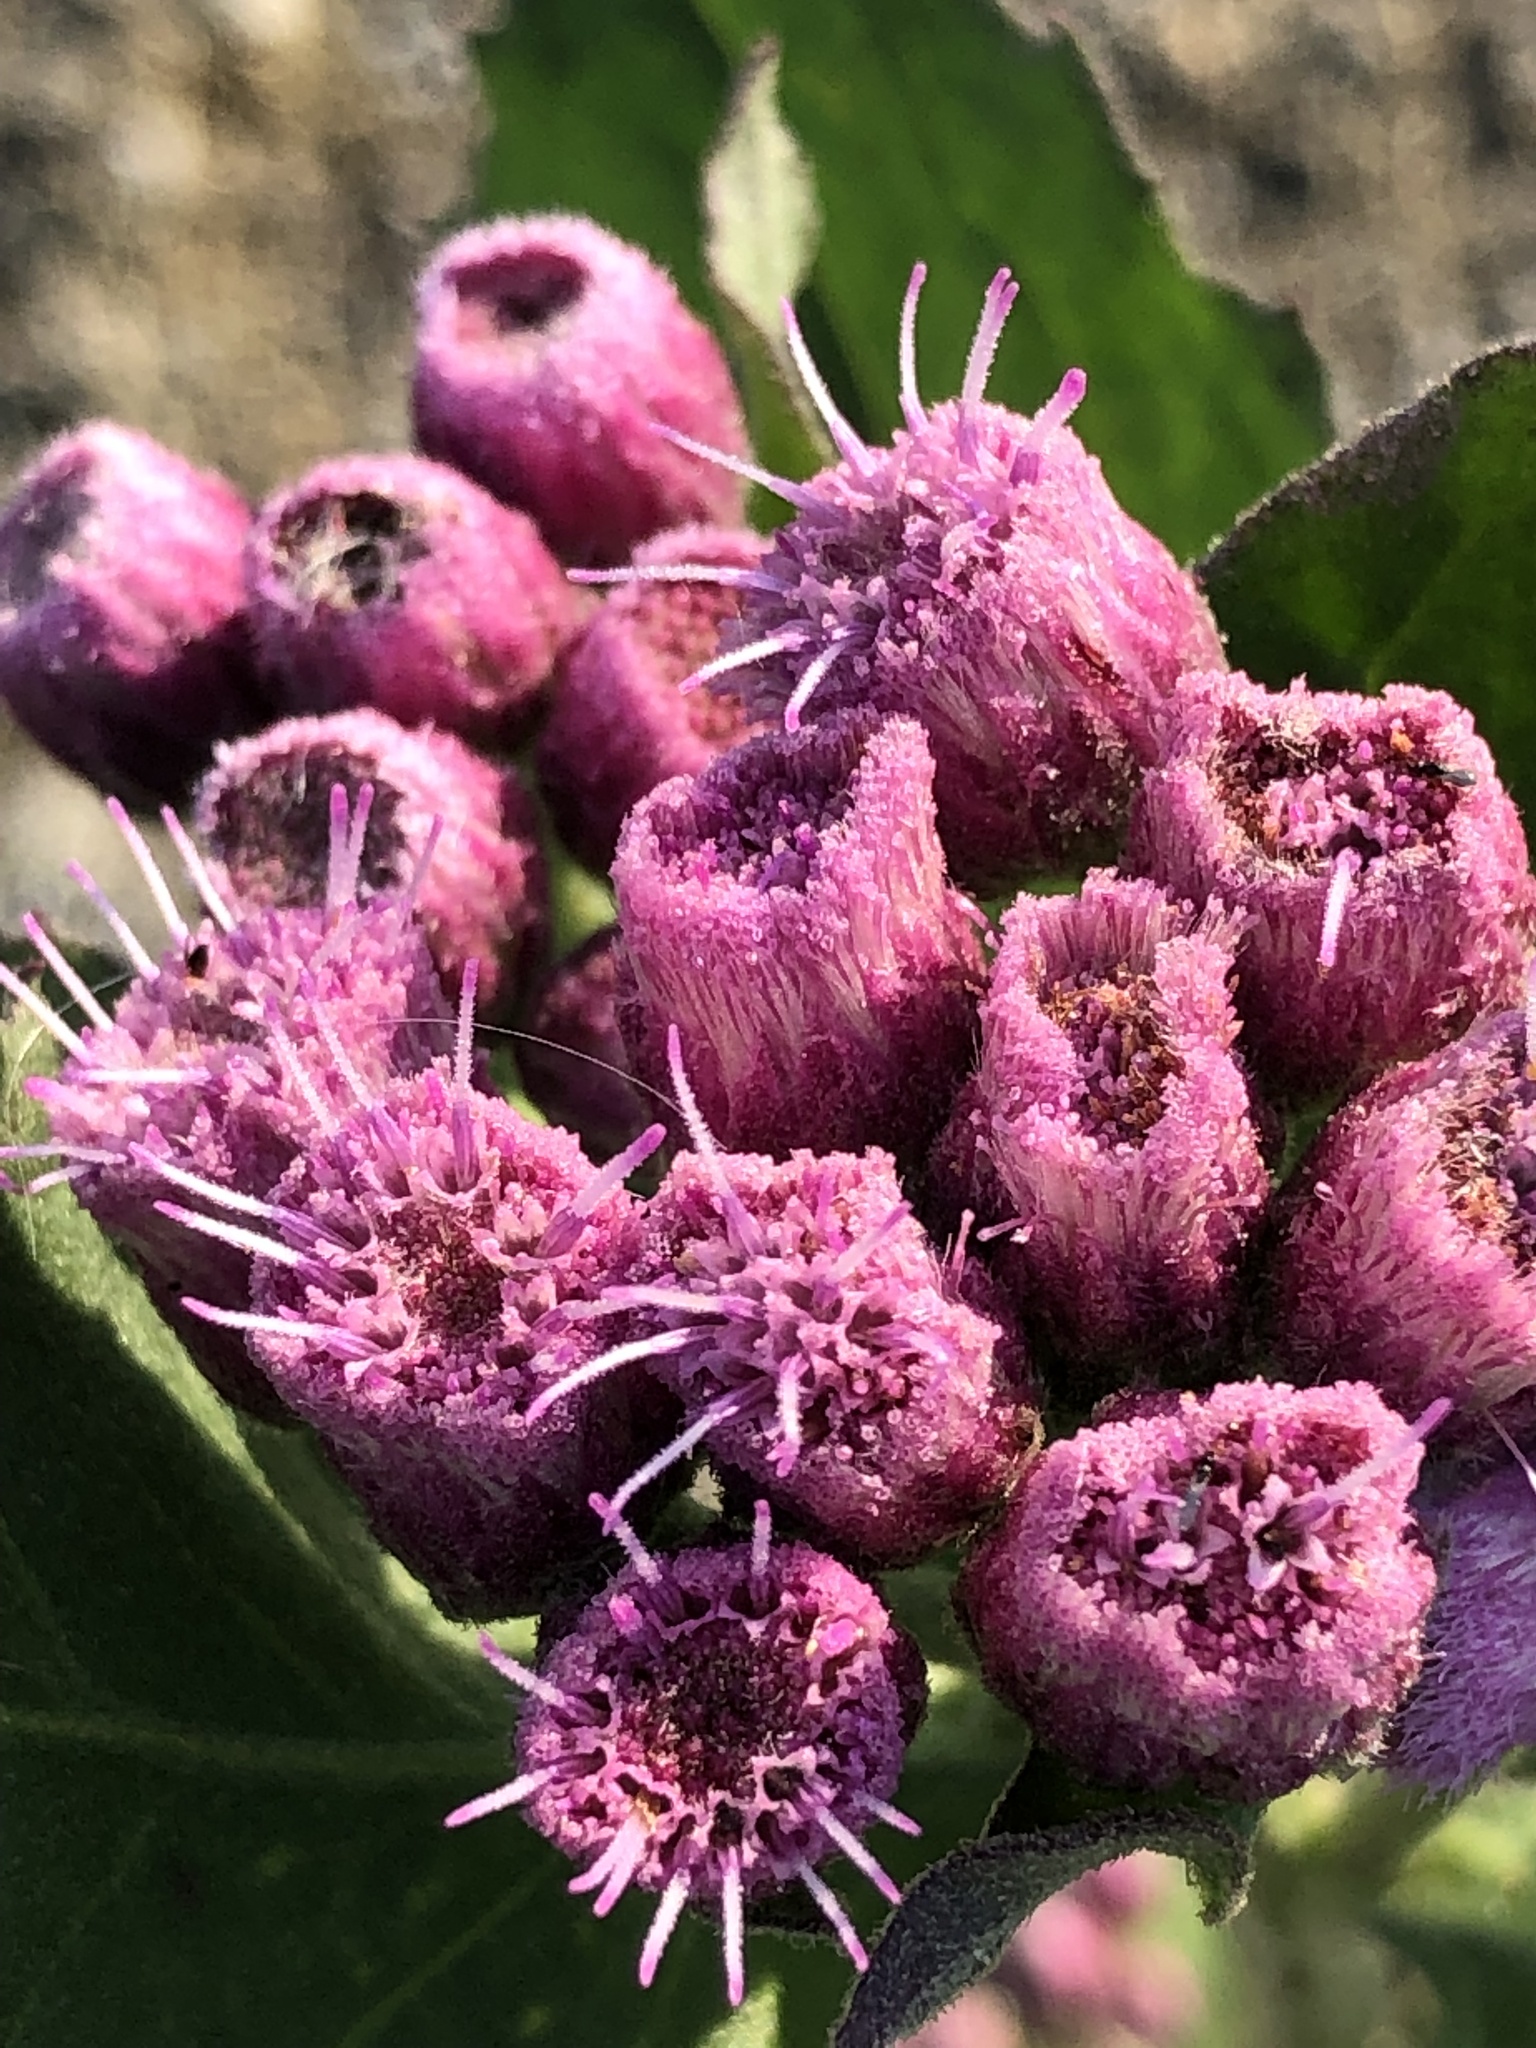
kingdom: Plantae
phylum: Tracheophyta
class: Magnoliopsida
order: Asterales
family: Asteraceae
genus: Pluchea
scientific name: Pluchea odorata
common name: Saltmarsh fleabane
